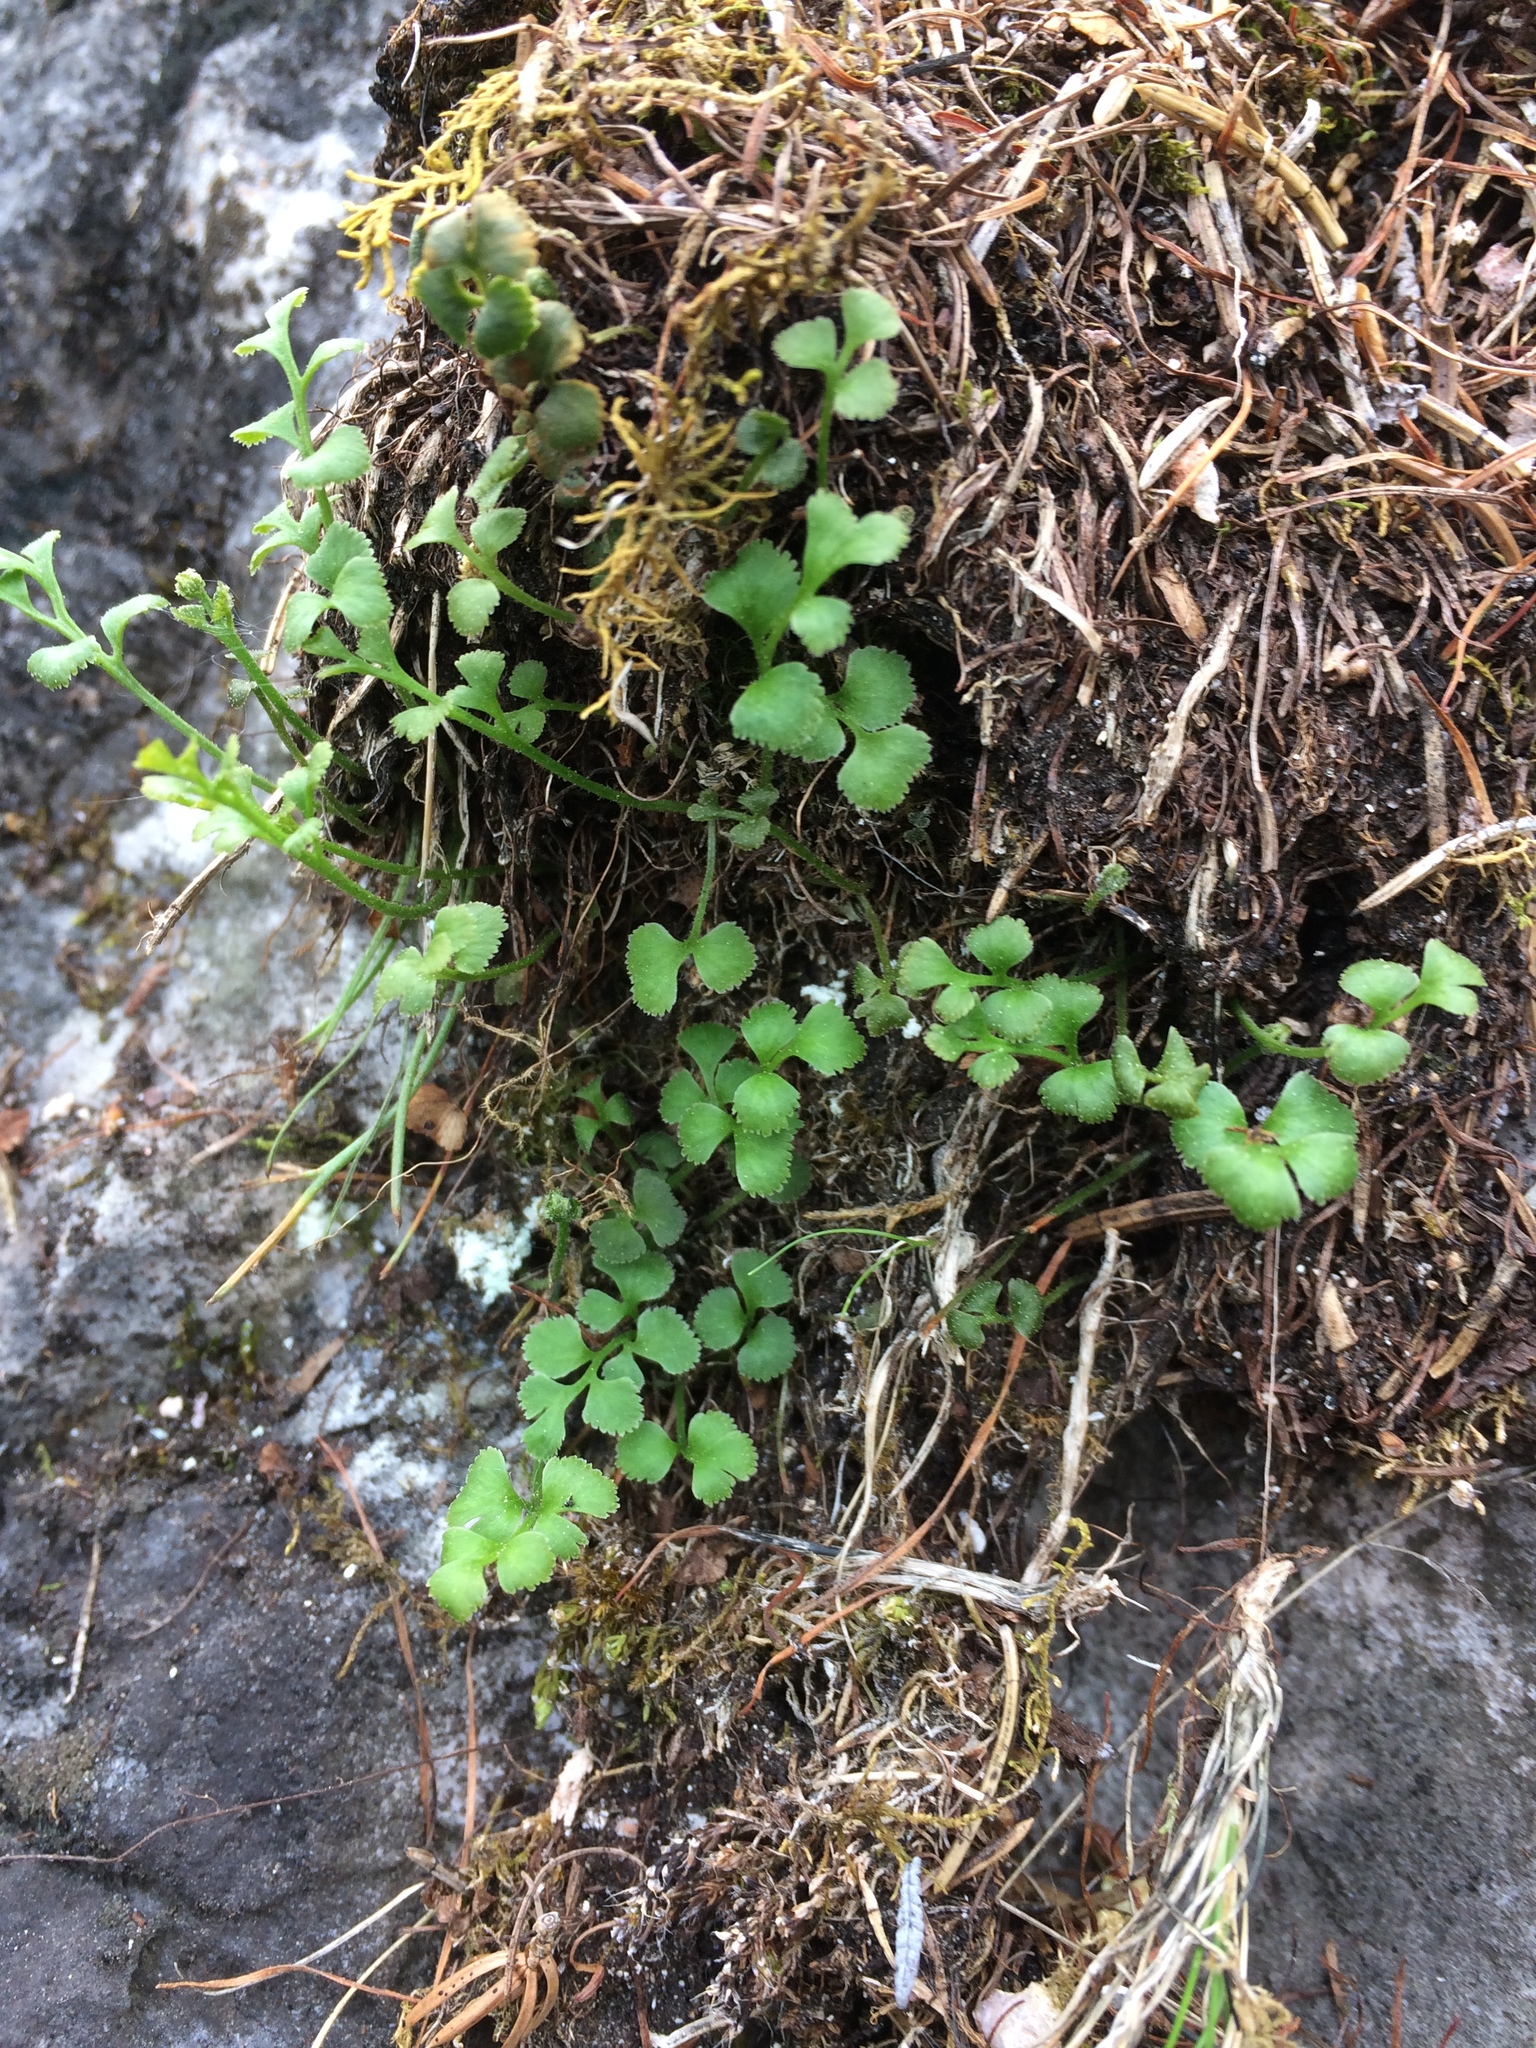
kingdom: Plantae
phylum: Tracheophyta
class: Polypodiopsida
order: Polypodiales
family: Aspleniaceae
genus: Asplenium
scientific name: Asplenium ruta-muraria
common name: Wall-rue
